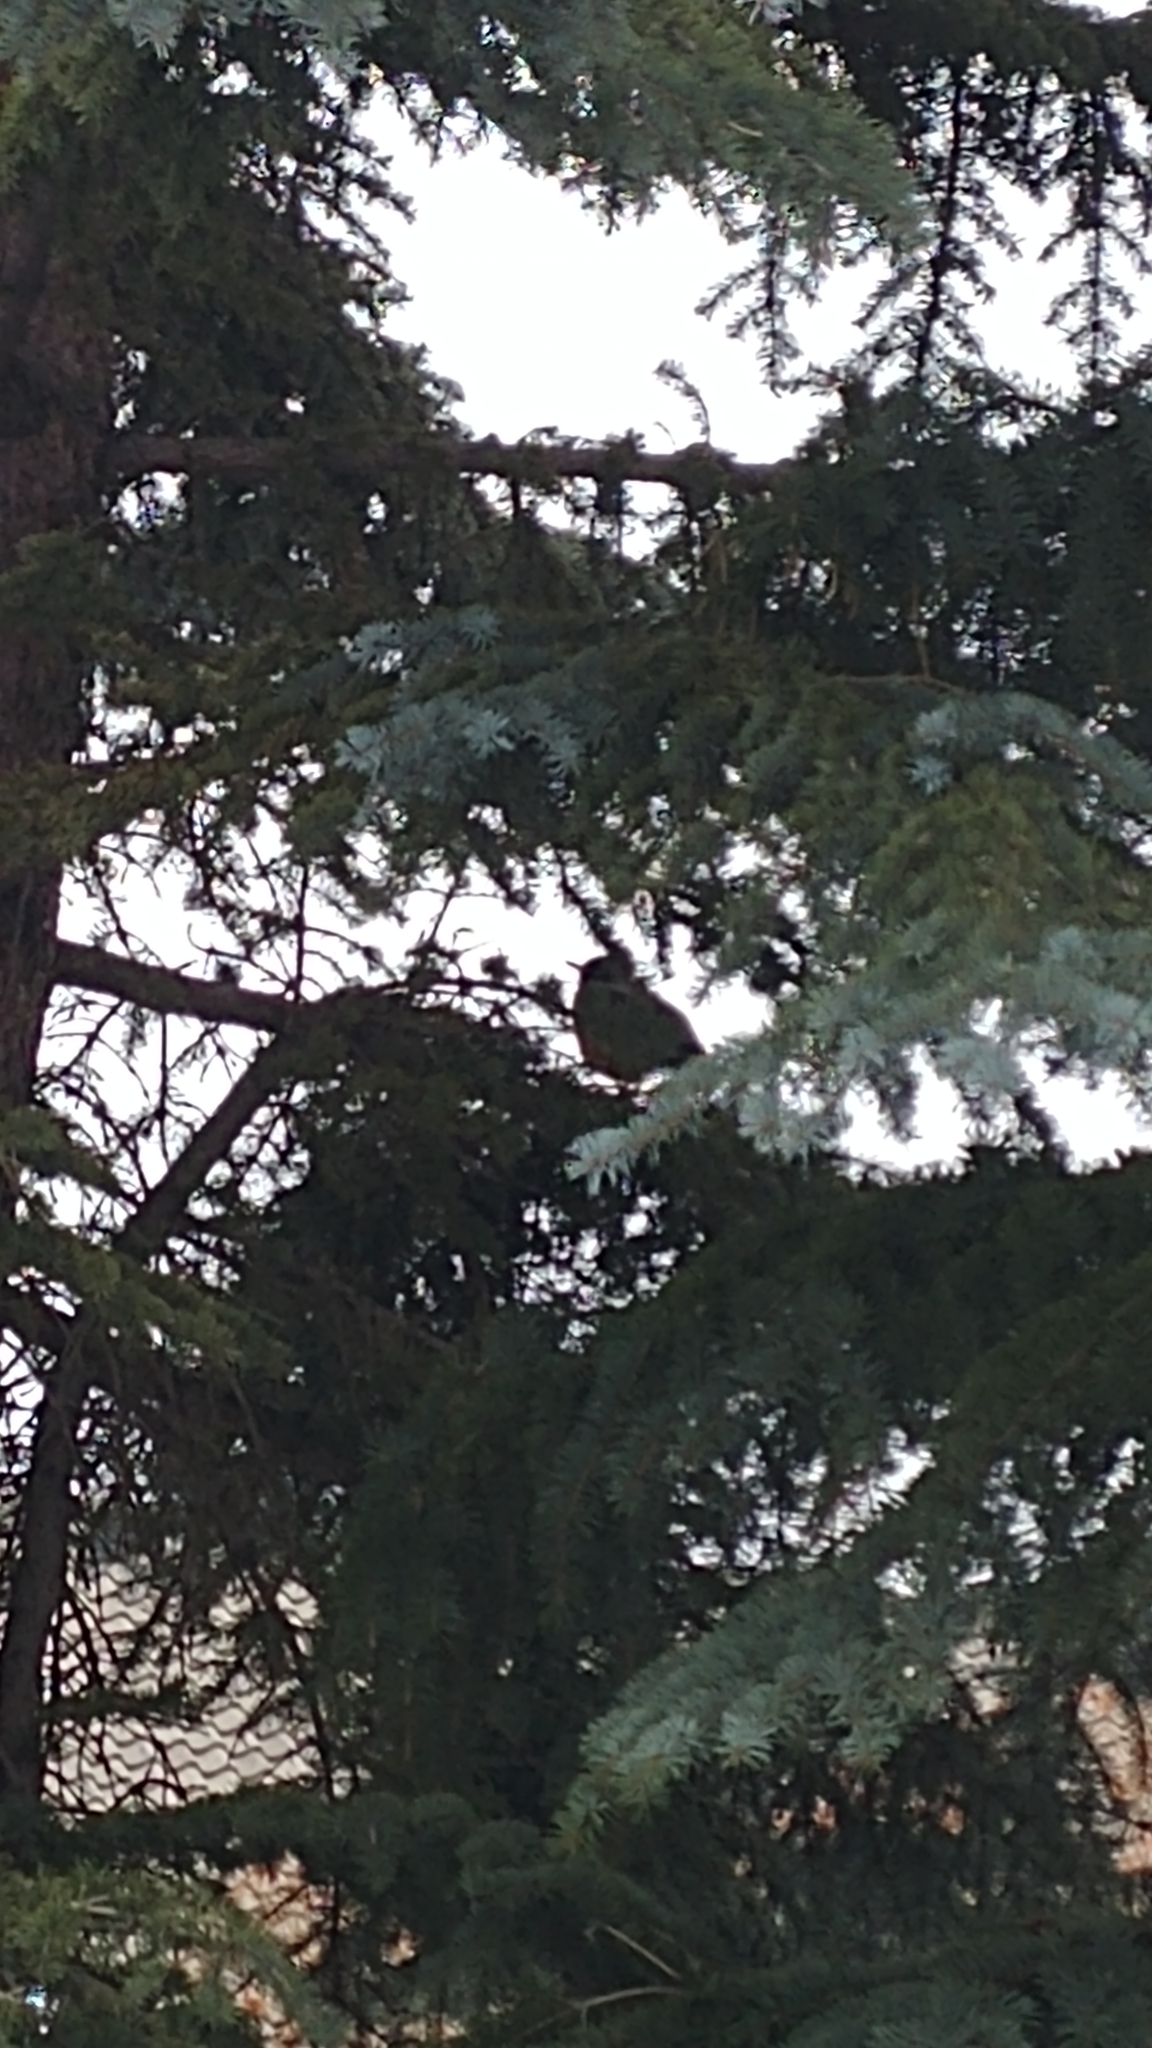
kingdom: Animalia
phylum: Chordata
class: Aves
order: Passeriformes
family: Turdidae
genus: Turdus
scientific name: Turdus migratorius
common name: American robin
